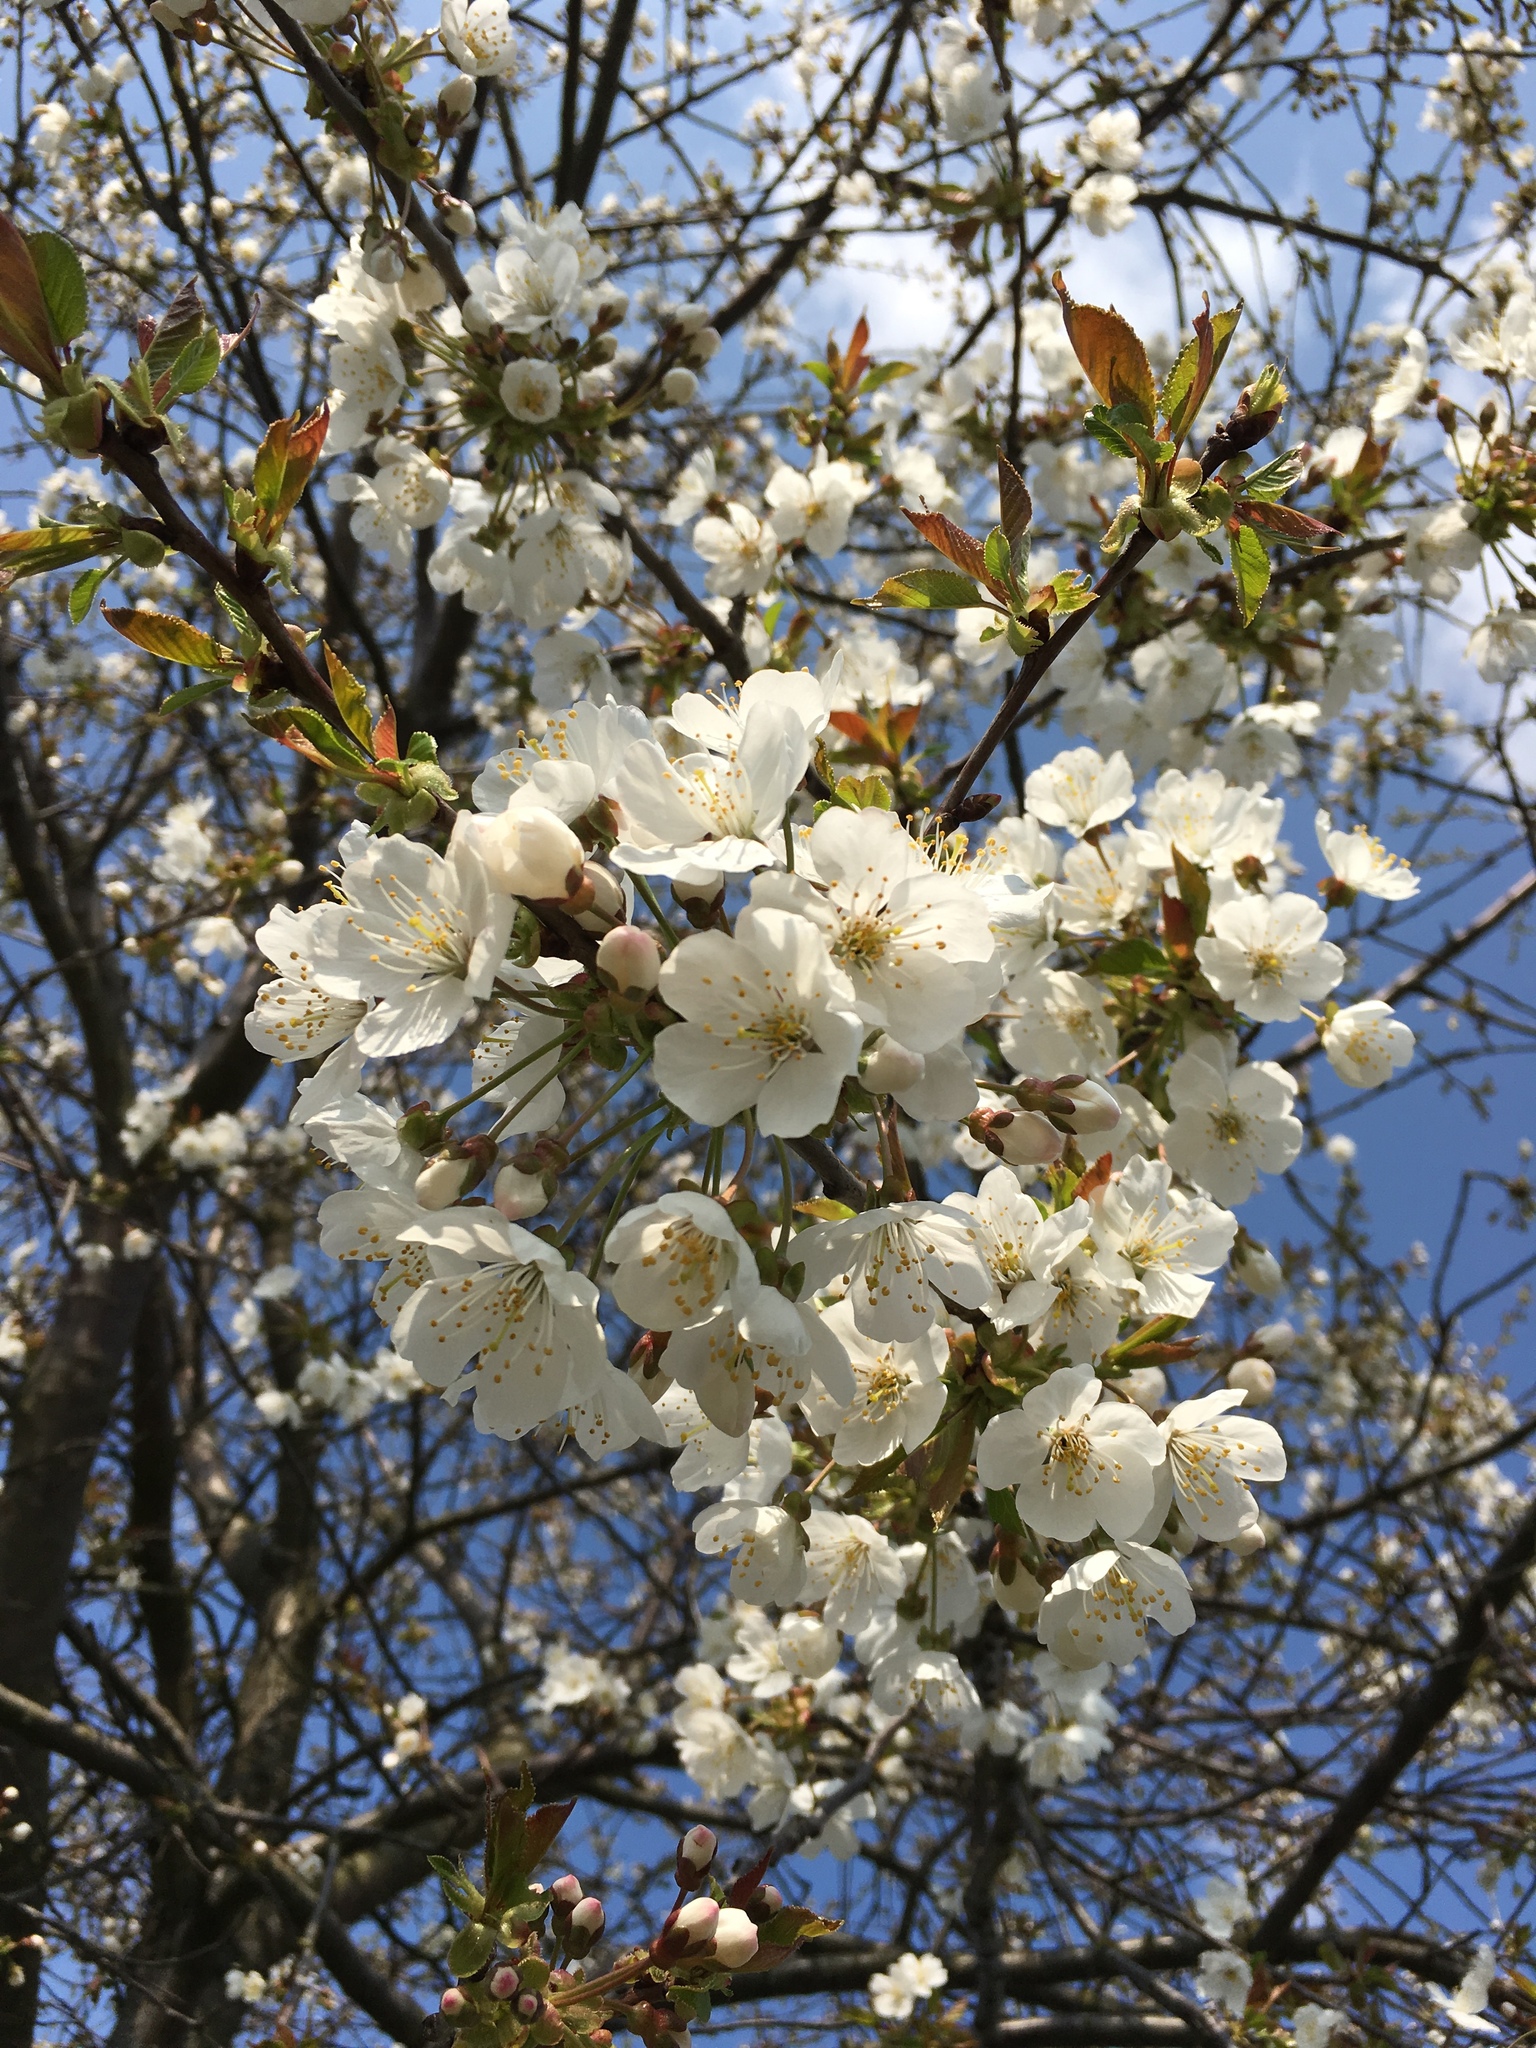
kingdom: Plantae
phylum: Tracheophyta
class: Magnoliopsida
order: Rosales
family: Rosaceae
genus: Prunus
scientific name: Prunus avium
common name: Sweet cherry
